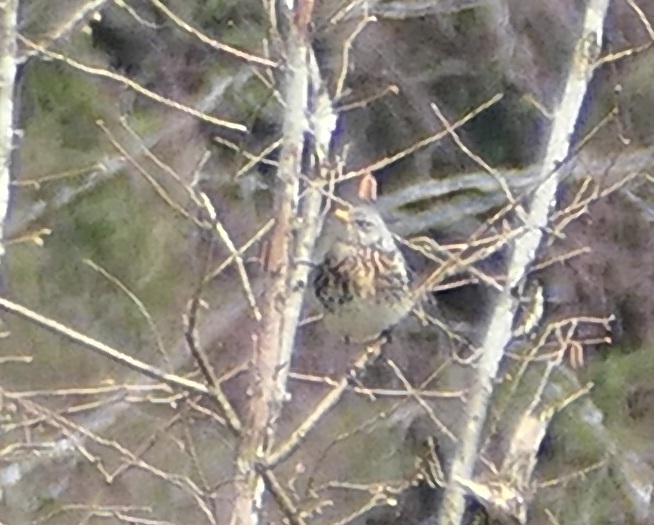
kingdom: Animalia
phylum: Chordata
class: Aves
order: Passeriformes
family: Turdidae
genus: Turdus
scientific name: Turdus pilaris
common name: Fieldfare
